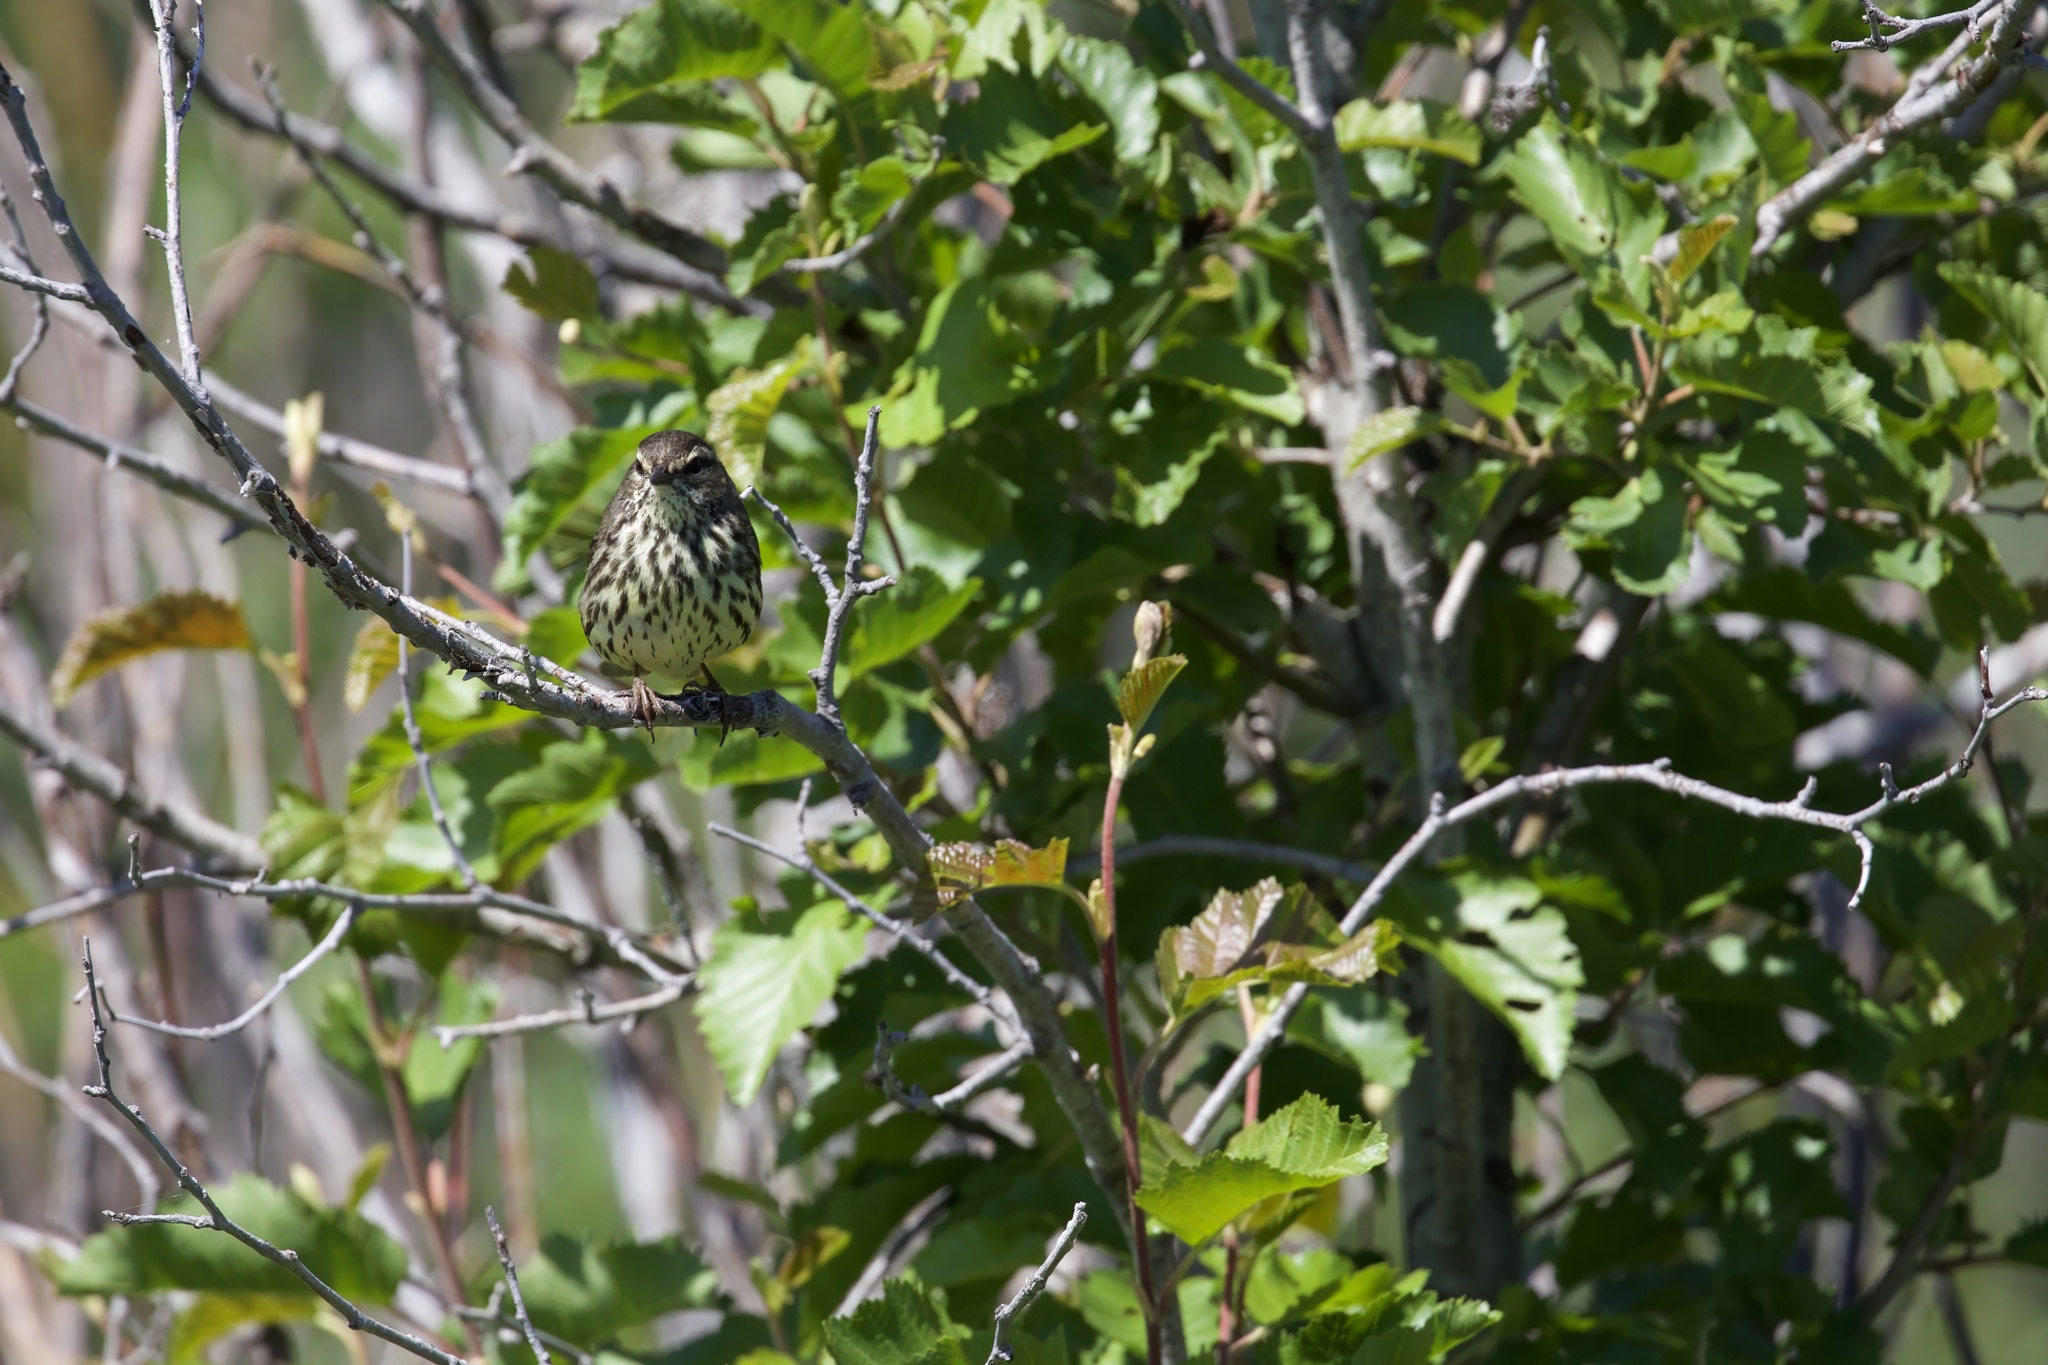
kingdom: Animalia
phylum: Chordata
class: Aves
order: Passeriformes
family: Parulidae
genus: Parkesia
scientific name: Parkesia noveboracensis
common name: Northern waterthrush
